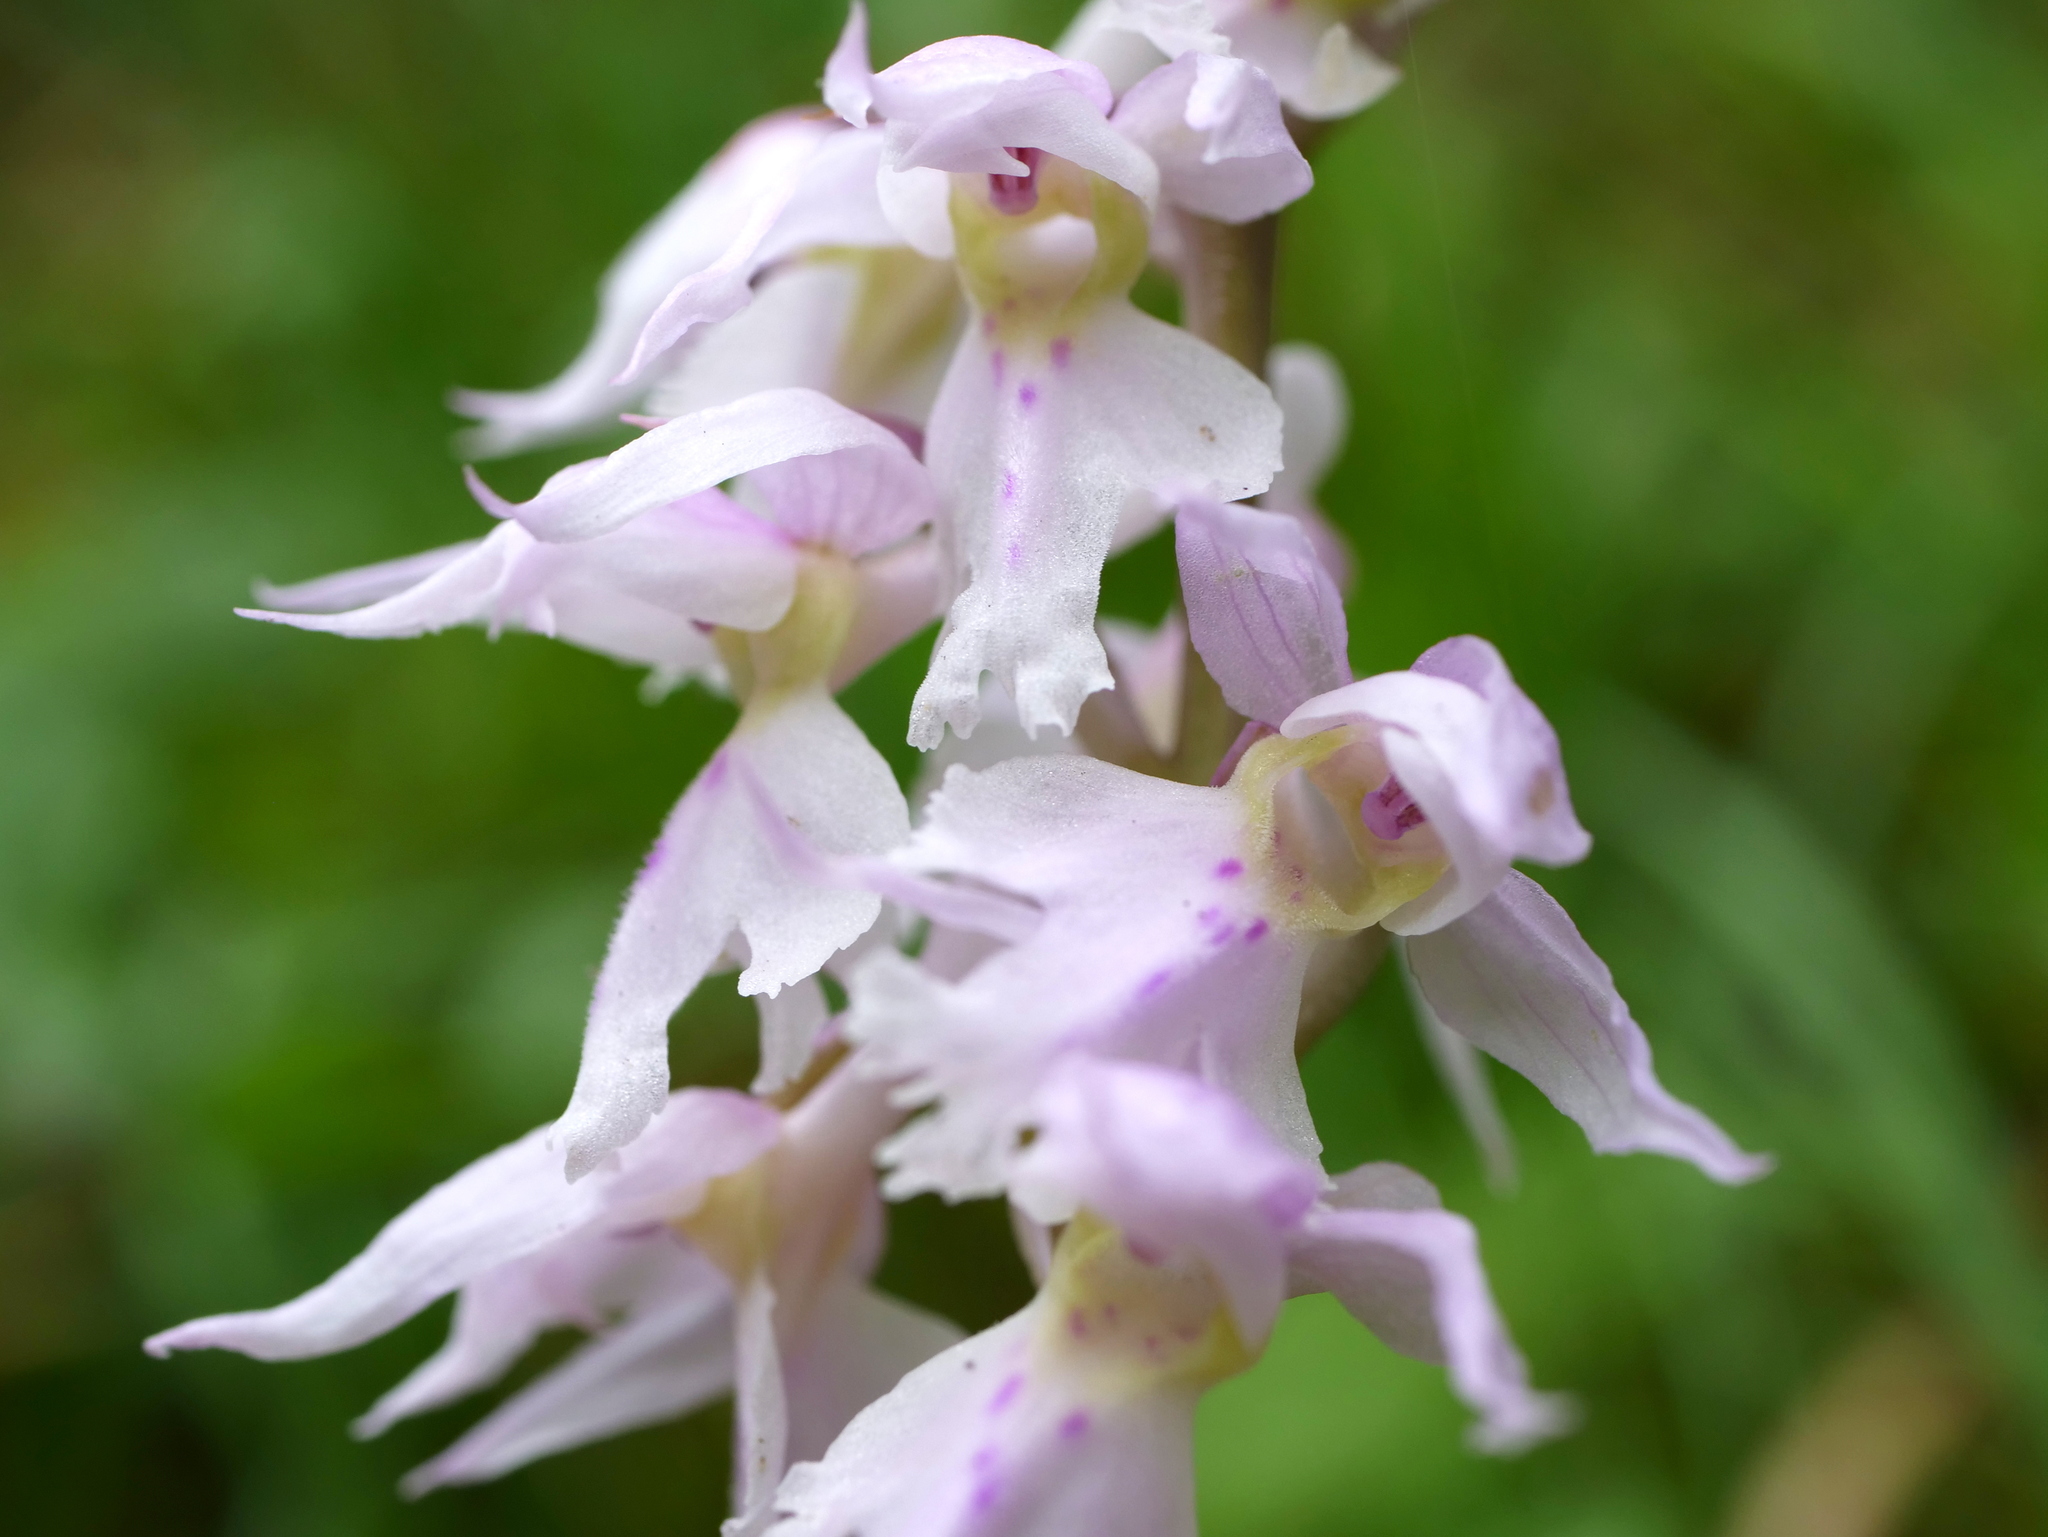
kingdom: Plantae
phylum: Tracheophyta
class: Liliopsida
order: Asparagales
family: Orchidaceae
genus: Orchis
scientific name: Orchis mascula
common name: Early-purple orchid
